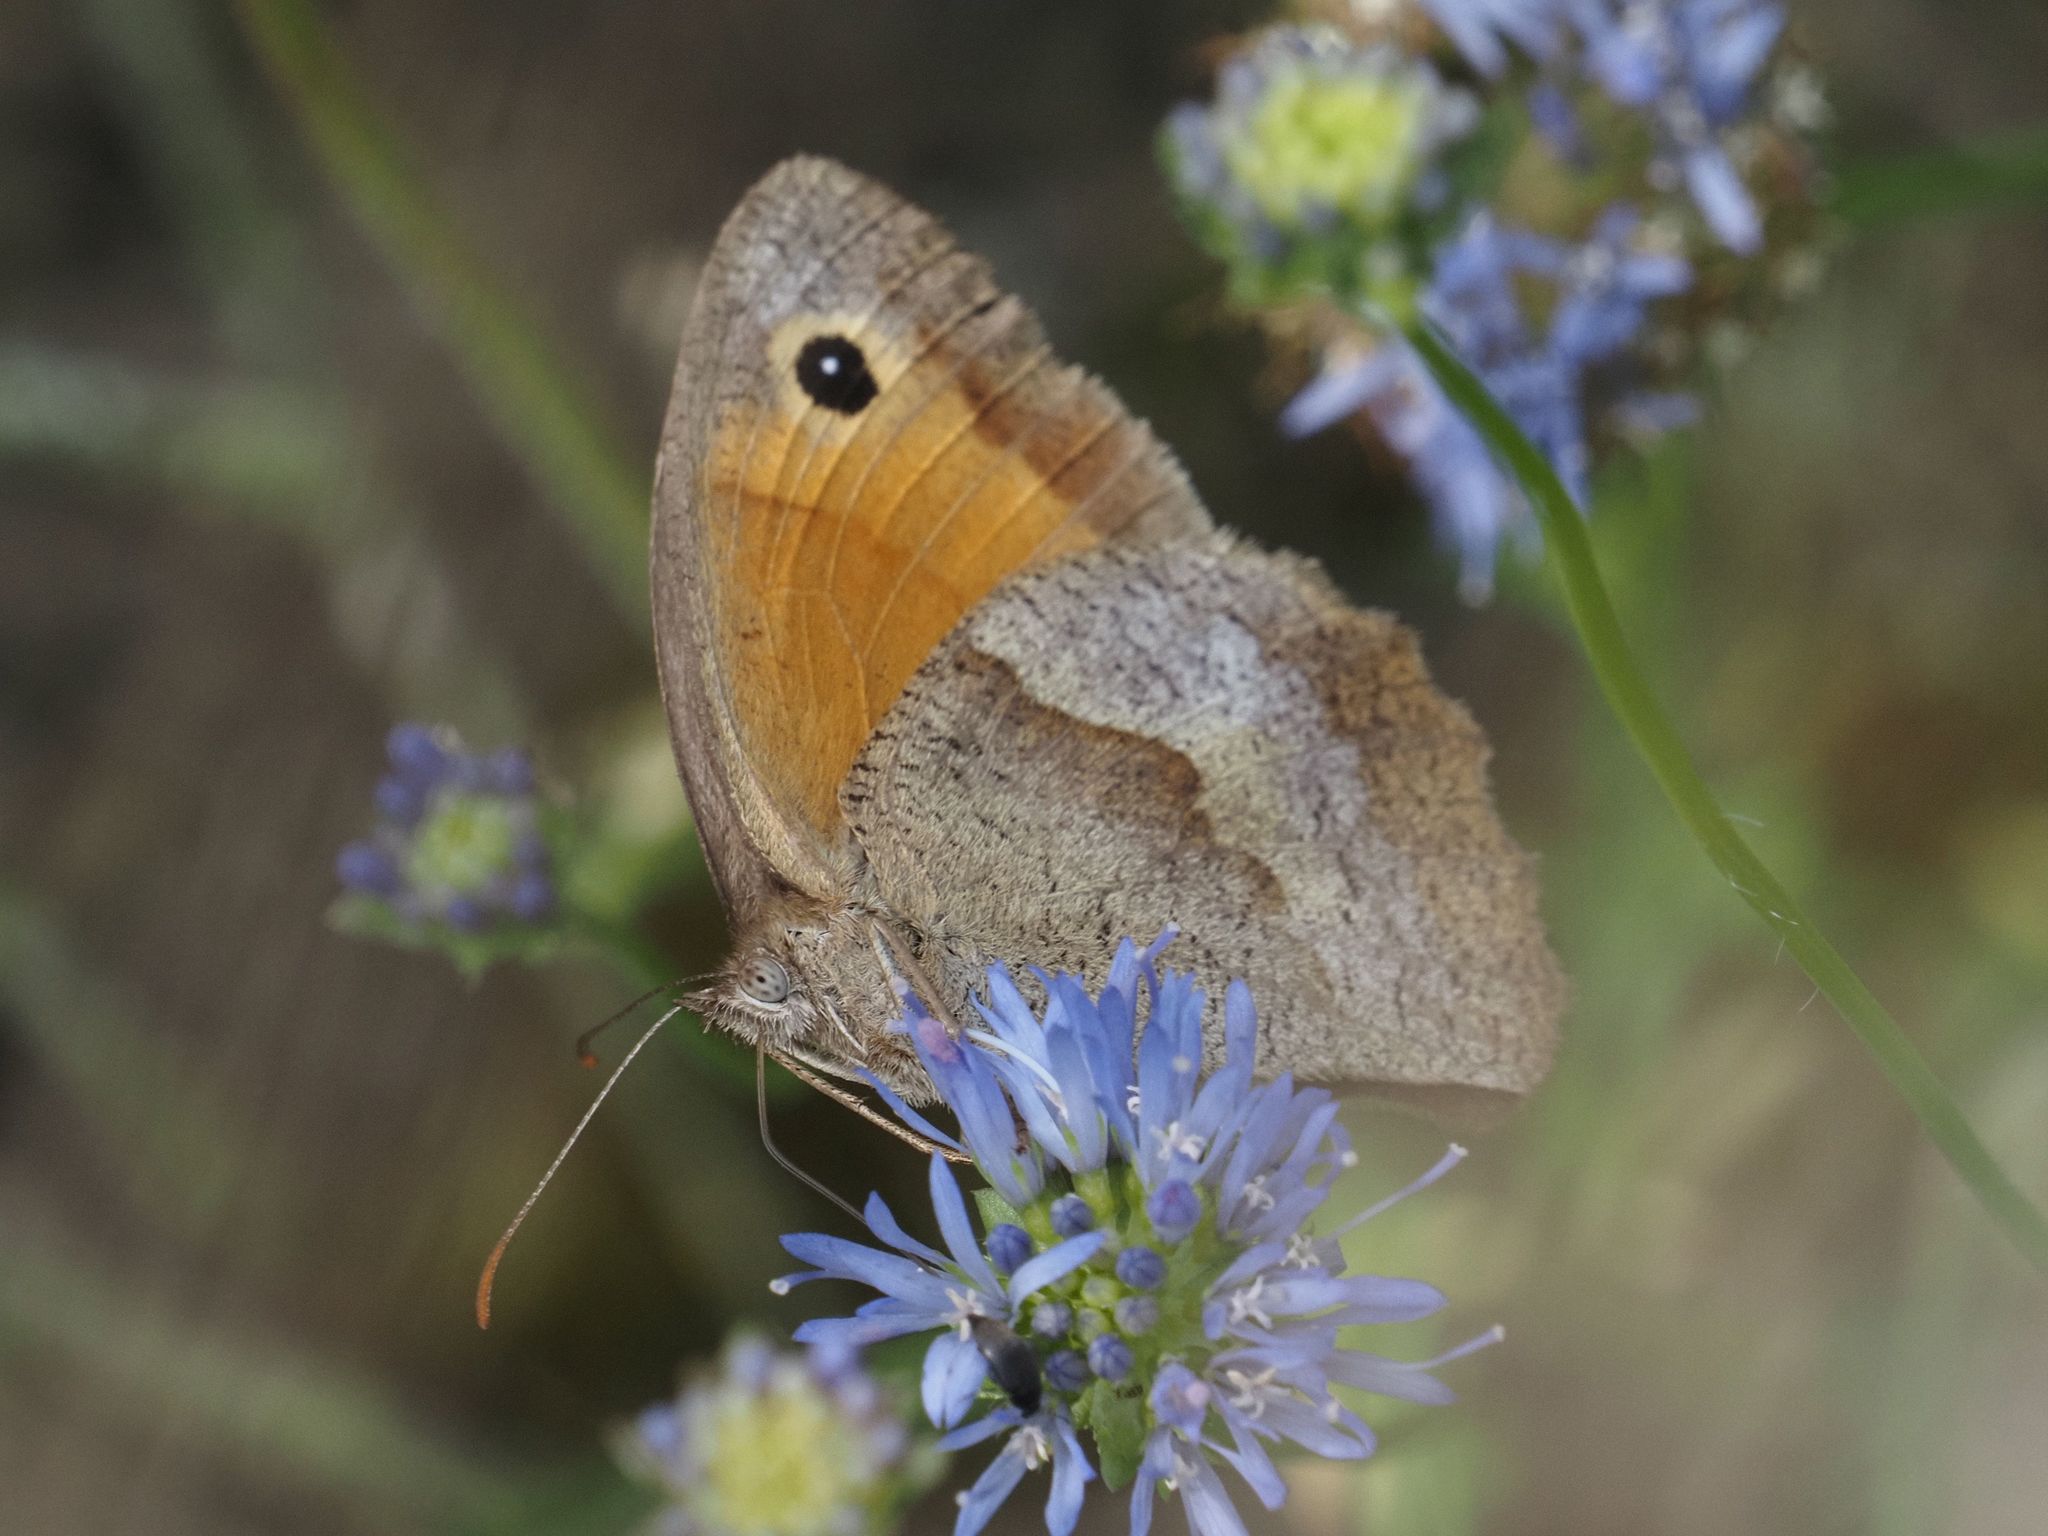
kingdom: Animalia
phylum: Arthropoda
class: Insecta
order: Lepidoptera
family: Nymphalidae
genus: Maniola
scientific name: Maniola jurtina
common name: Meadow brown
